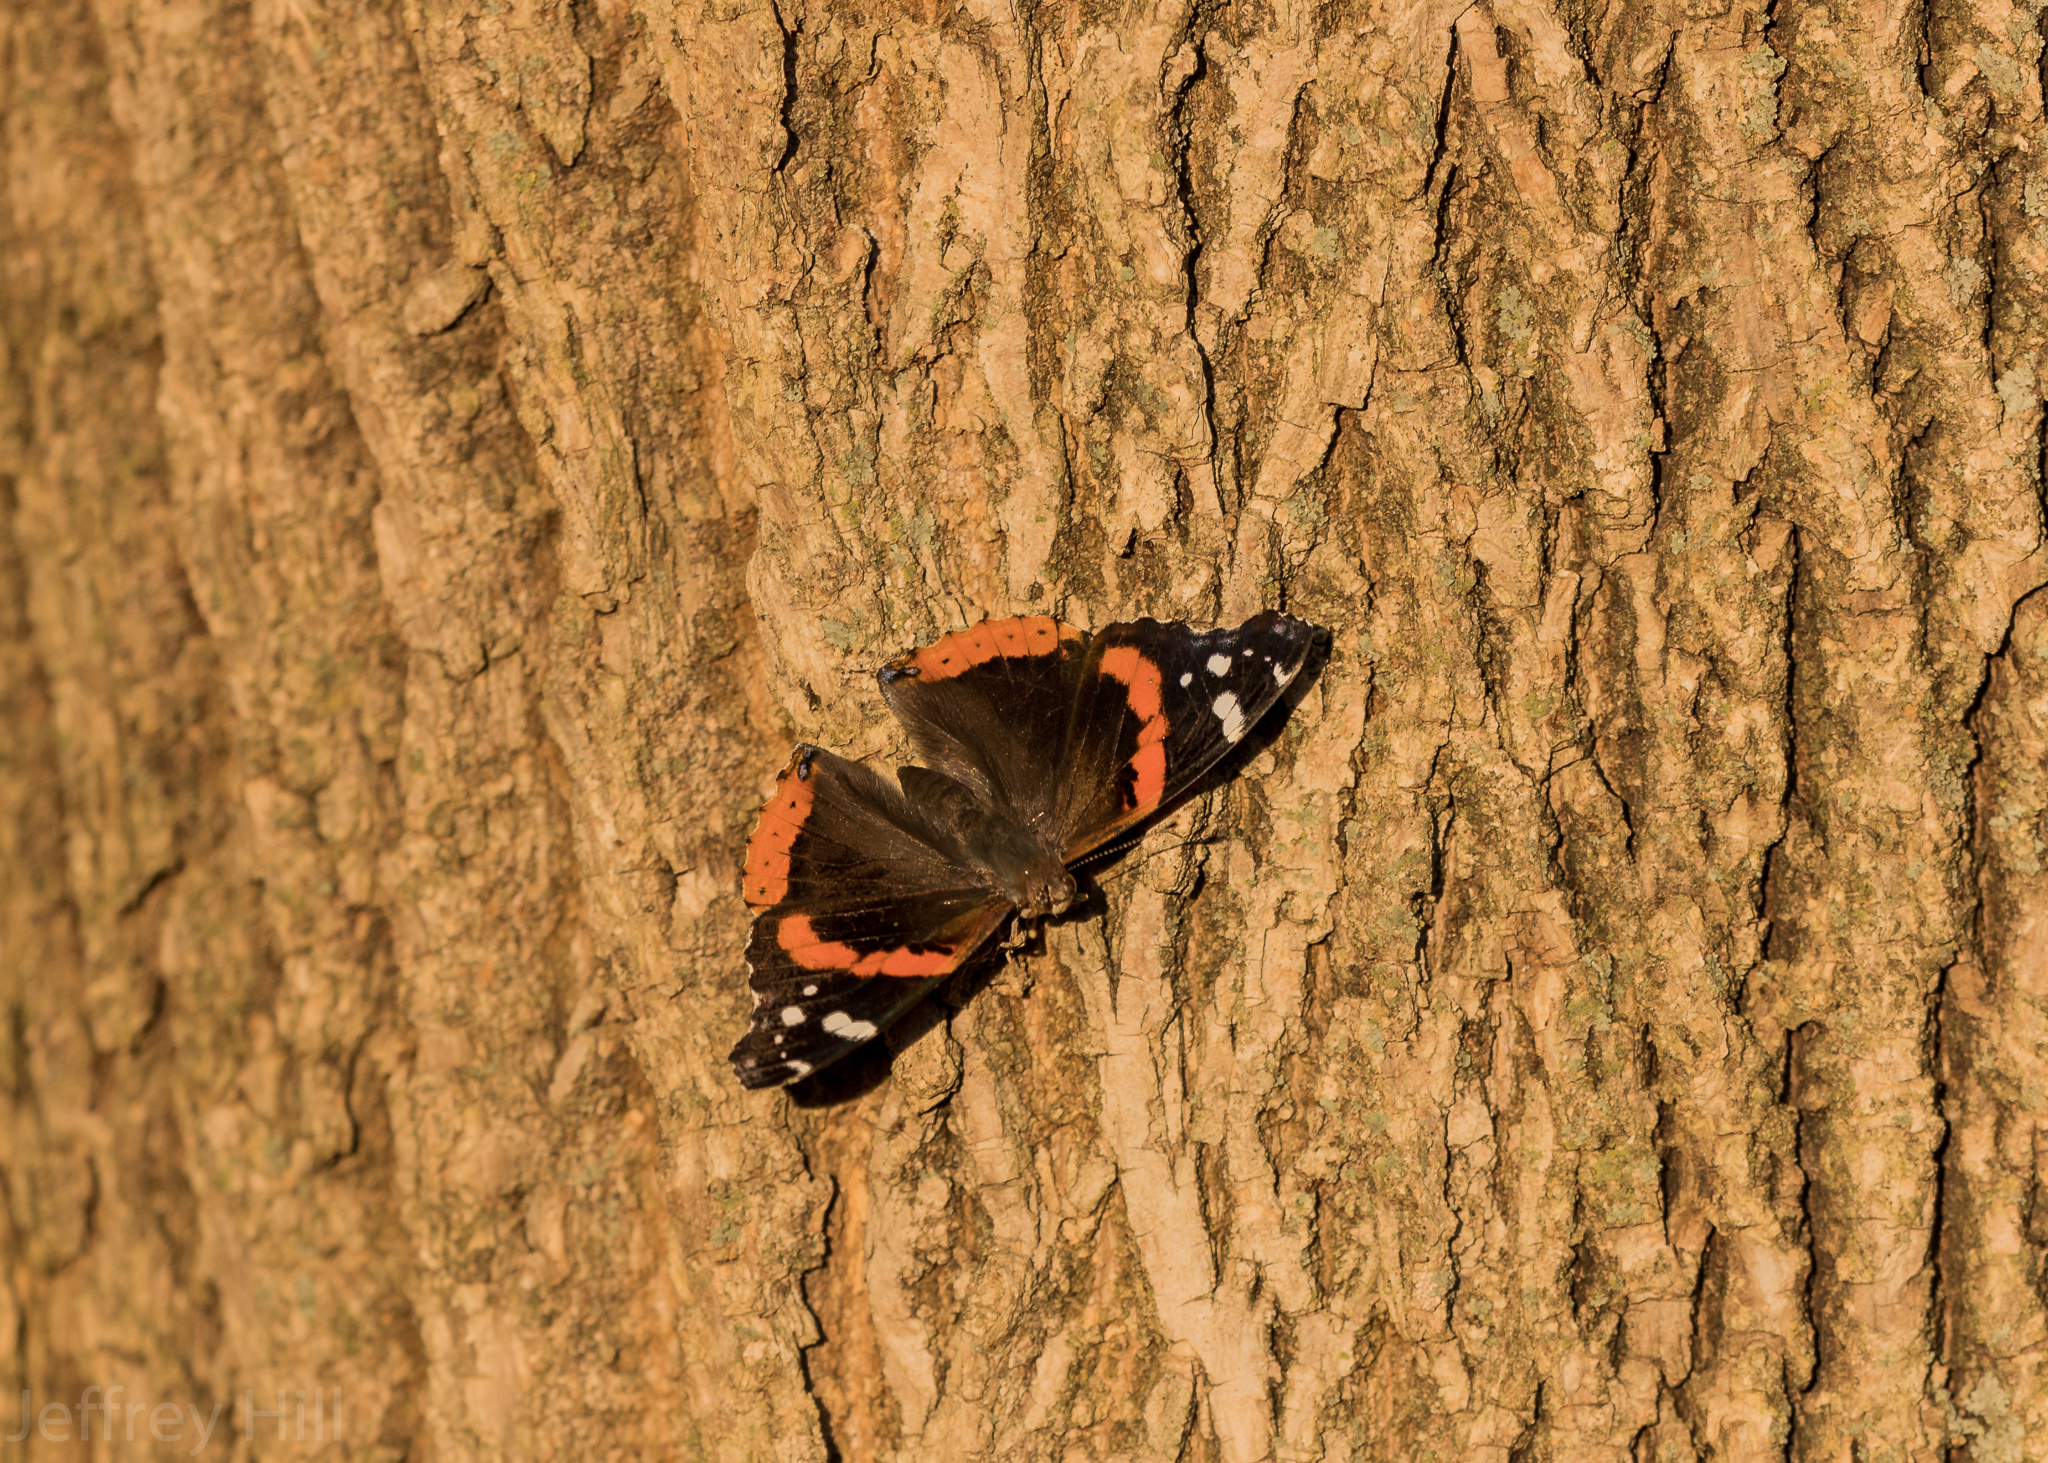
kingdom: Animalia
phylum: Arthropoda
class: Insecta
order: Lepidoptera
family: Nymphalidae
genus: Vanessa
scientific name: Vanessa atalanta
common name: Red admiral
